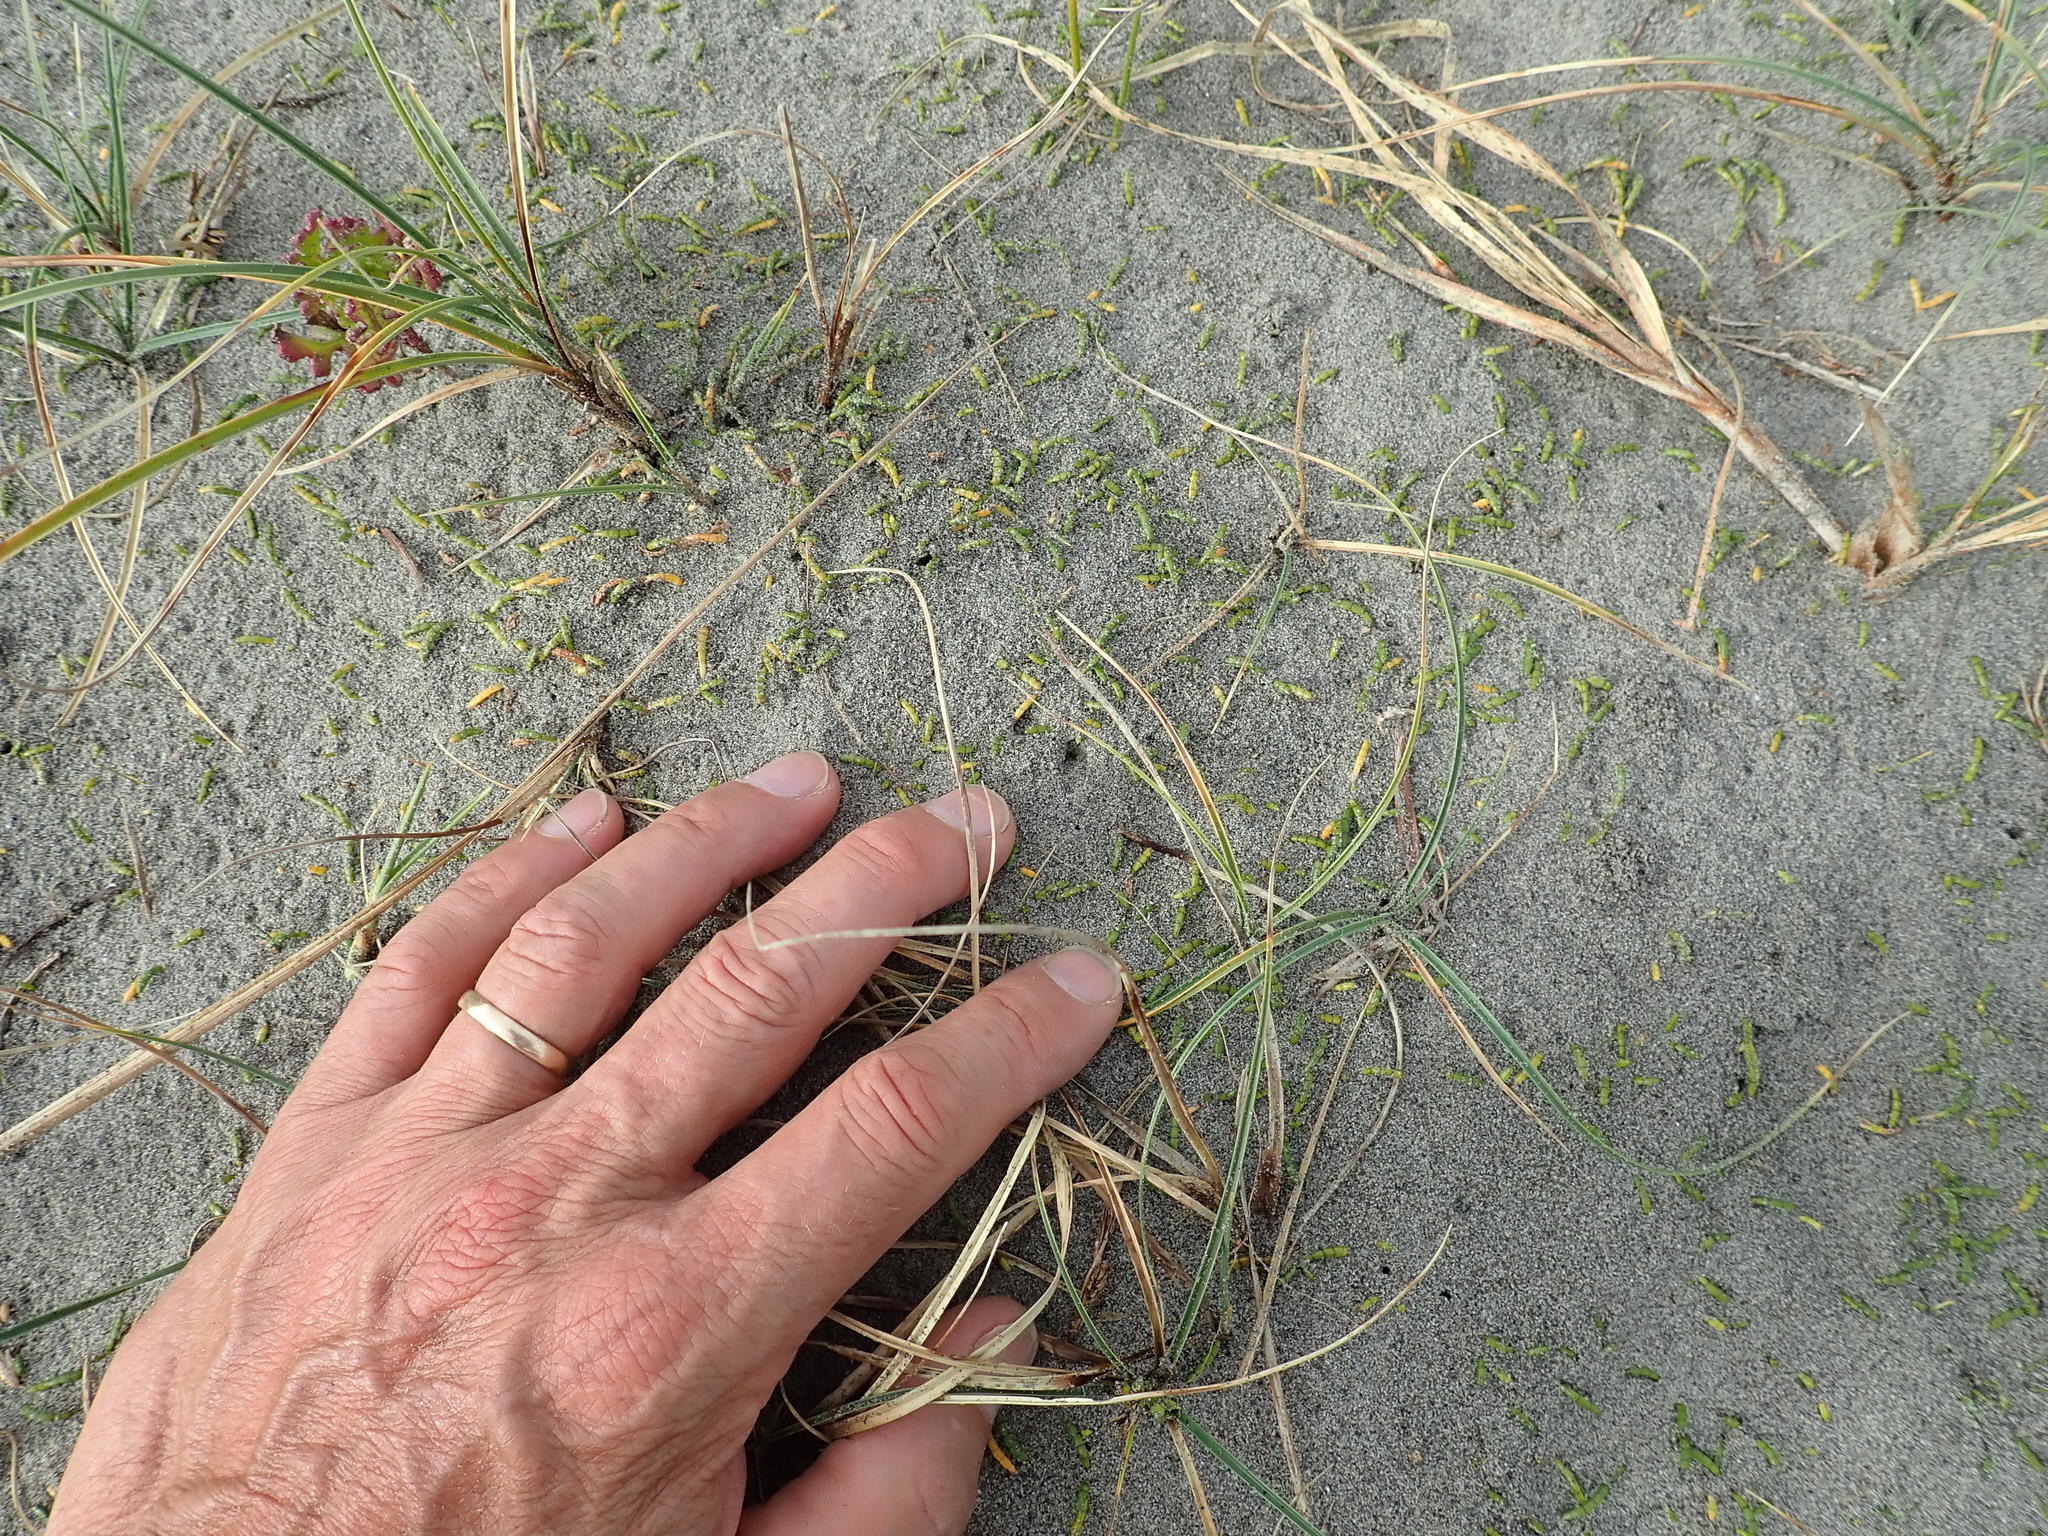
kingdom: Plantae
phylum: Tracheophyta
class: Magnoliopsida
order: Apiales
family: Apiaceae
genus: Lilaeopsis
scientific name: Lilaeopsis novae-zelandiae
